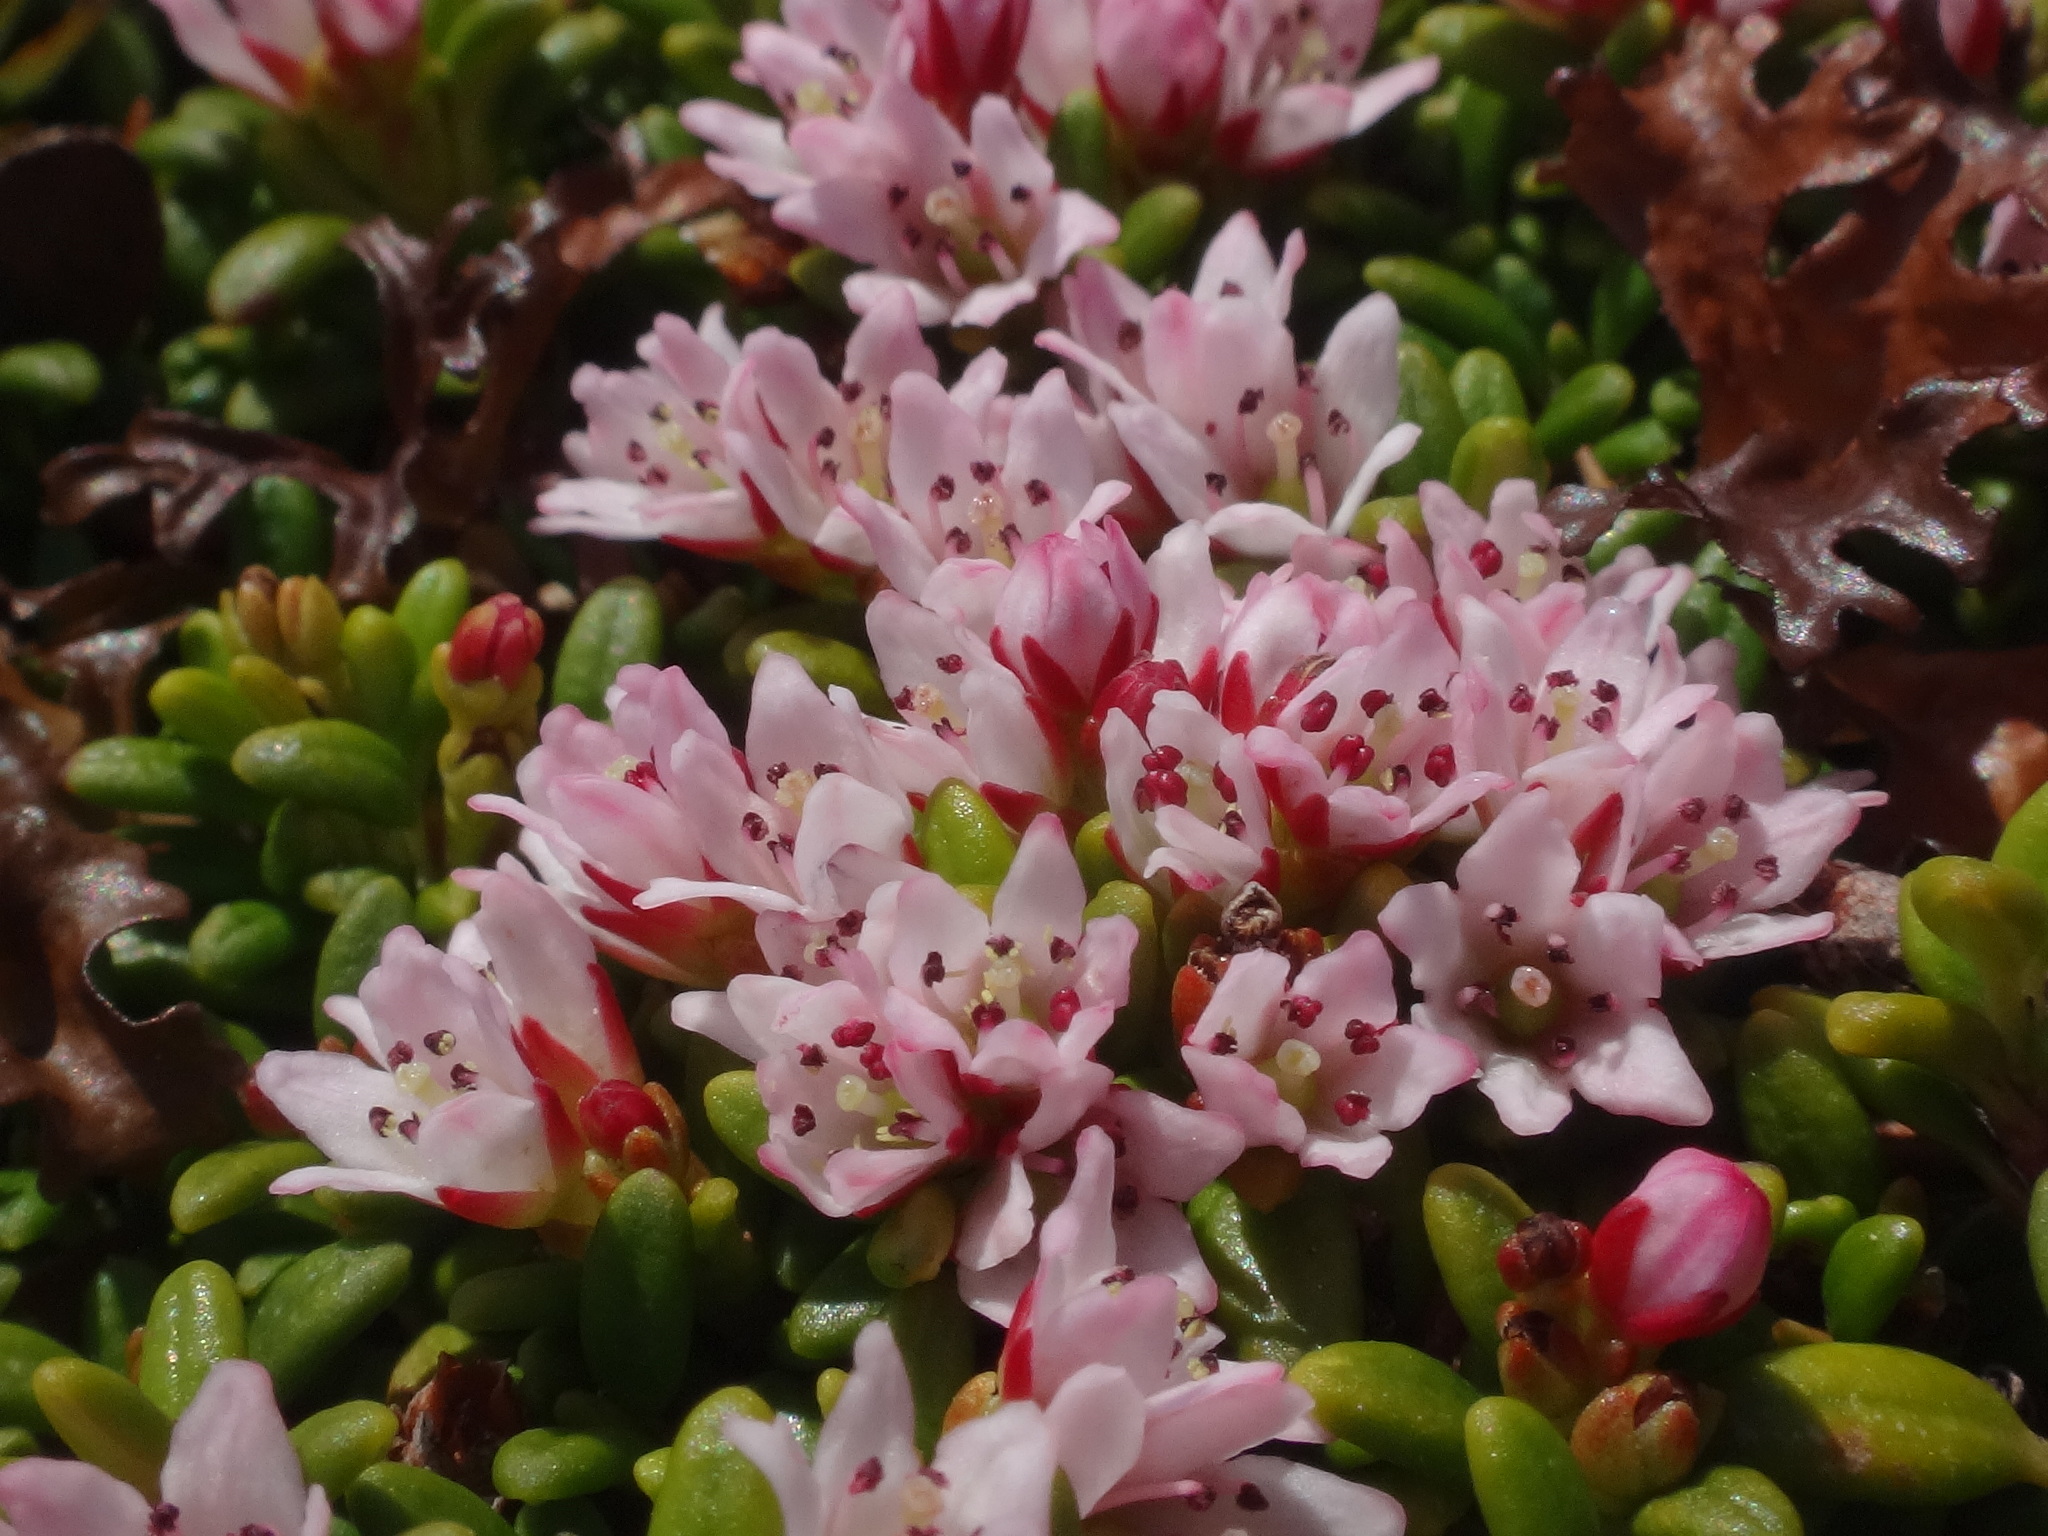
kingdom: Plantae
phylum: Tracheophyta
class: Magnoliopsida
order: Ericales
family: Ericaceae
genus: Kalmia
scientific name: Kalmia procumbens
